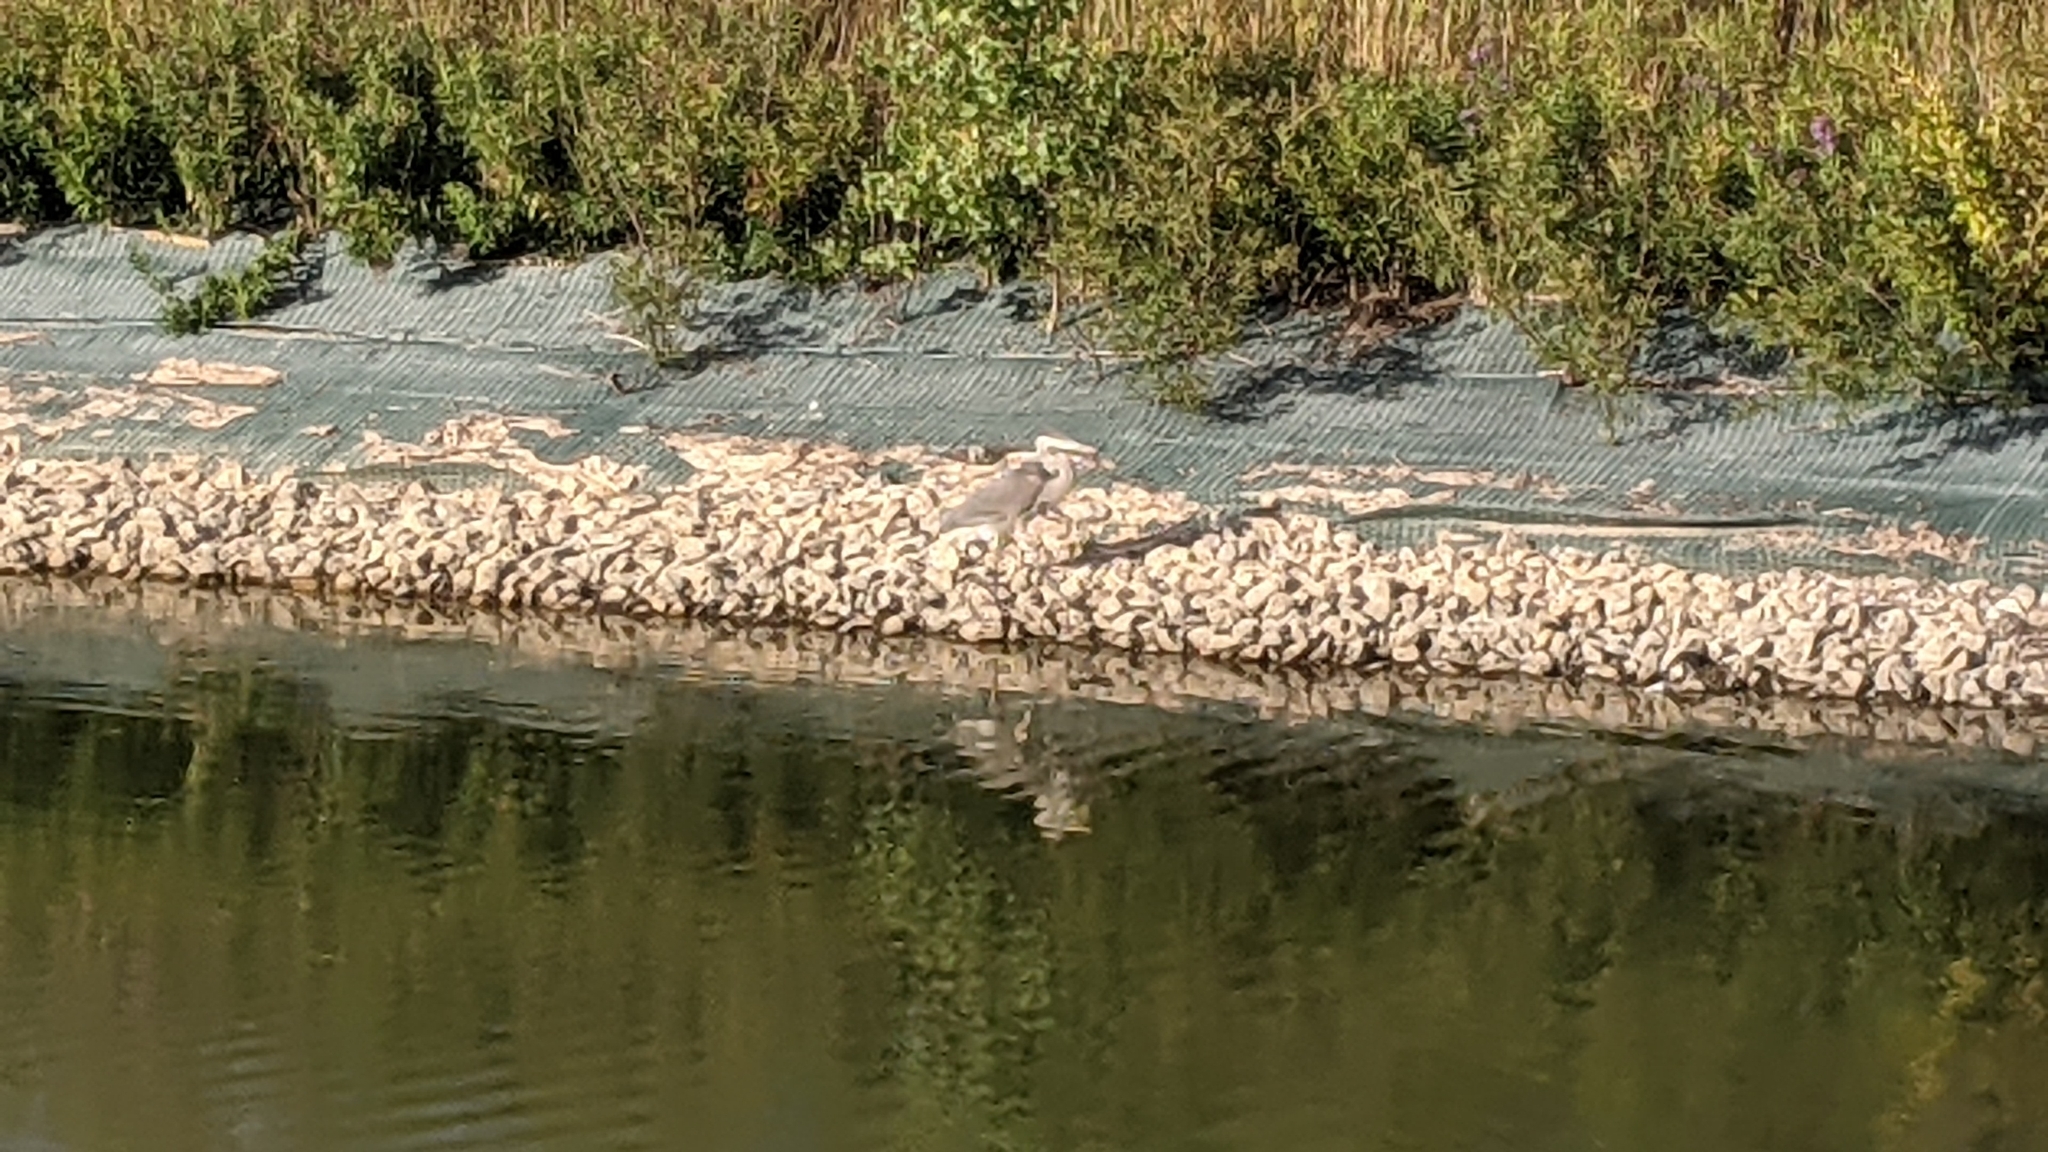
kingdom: Animalia
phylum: Chordata
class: Aves
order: Pelecaniformes
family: Ardeidae
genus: Ardea
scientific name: Ardea herodias
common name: Great blue heron
